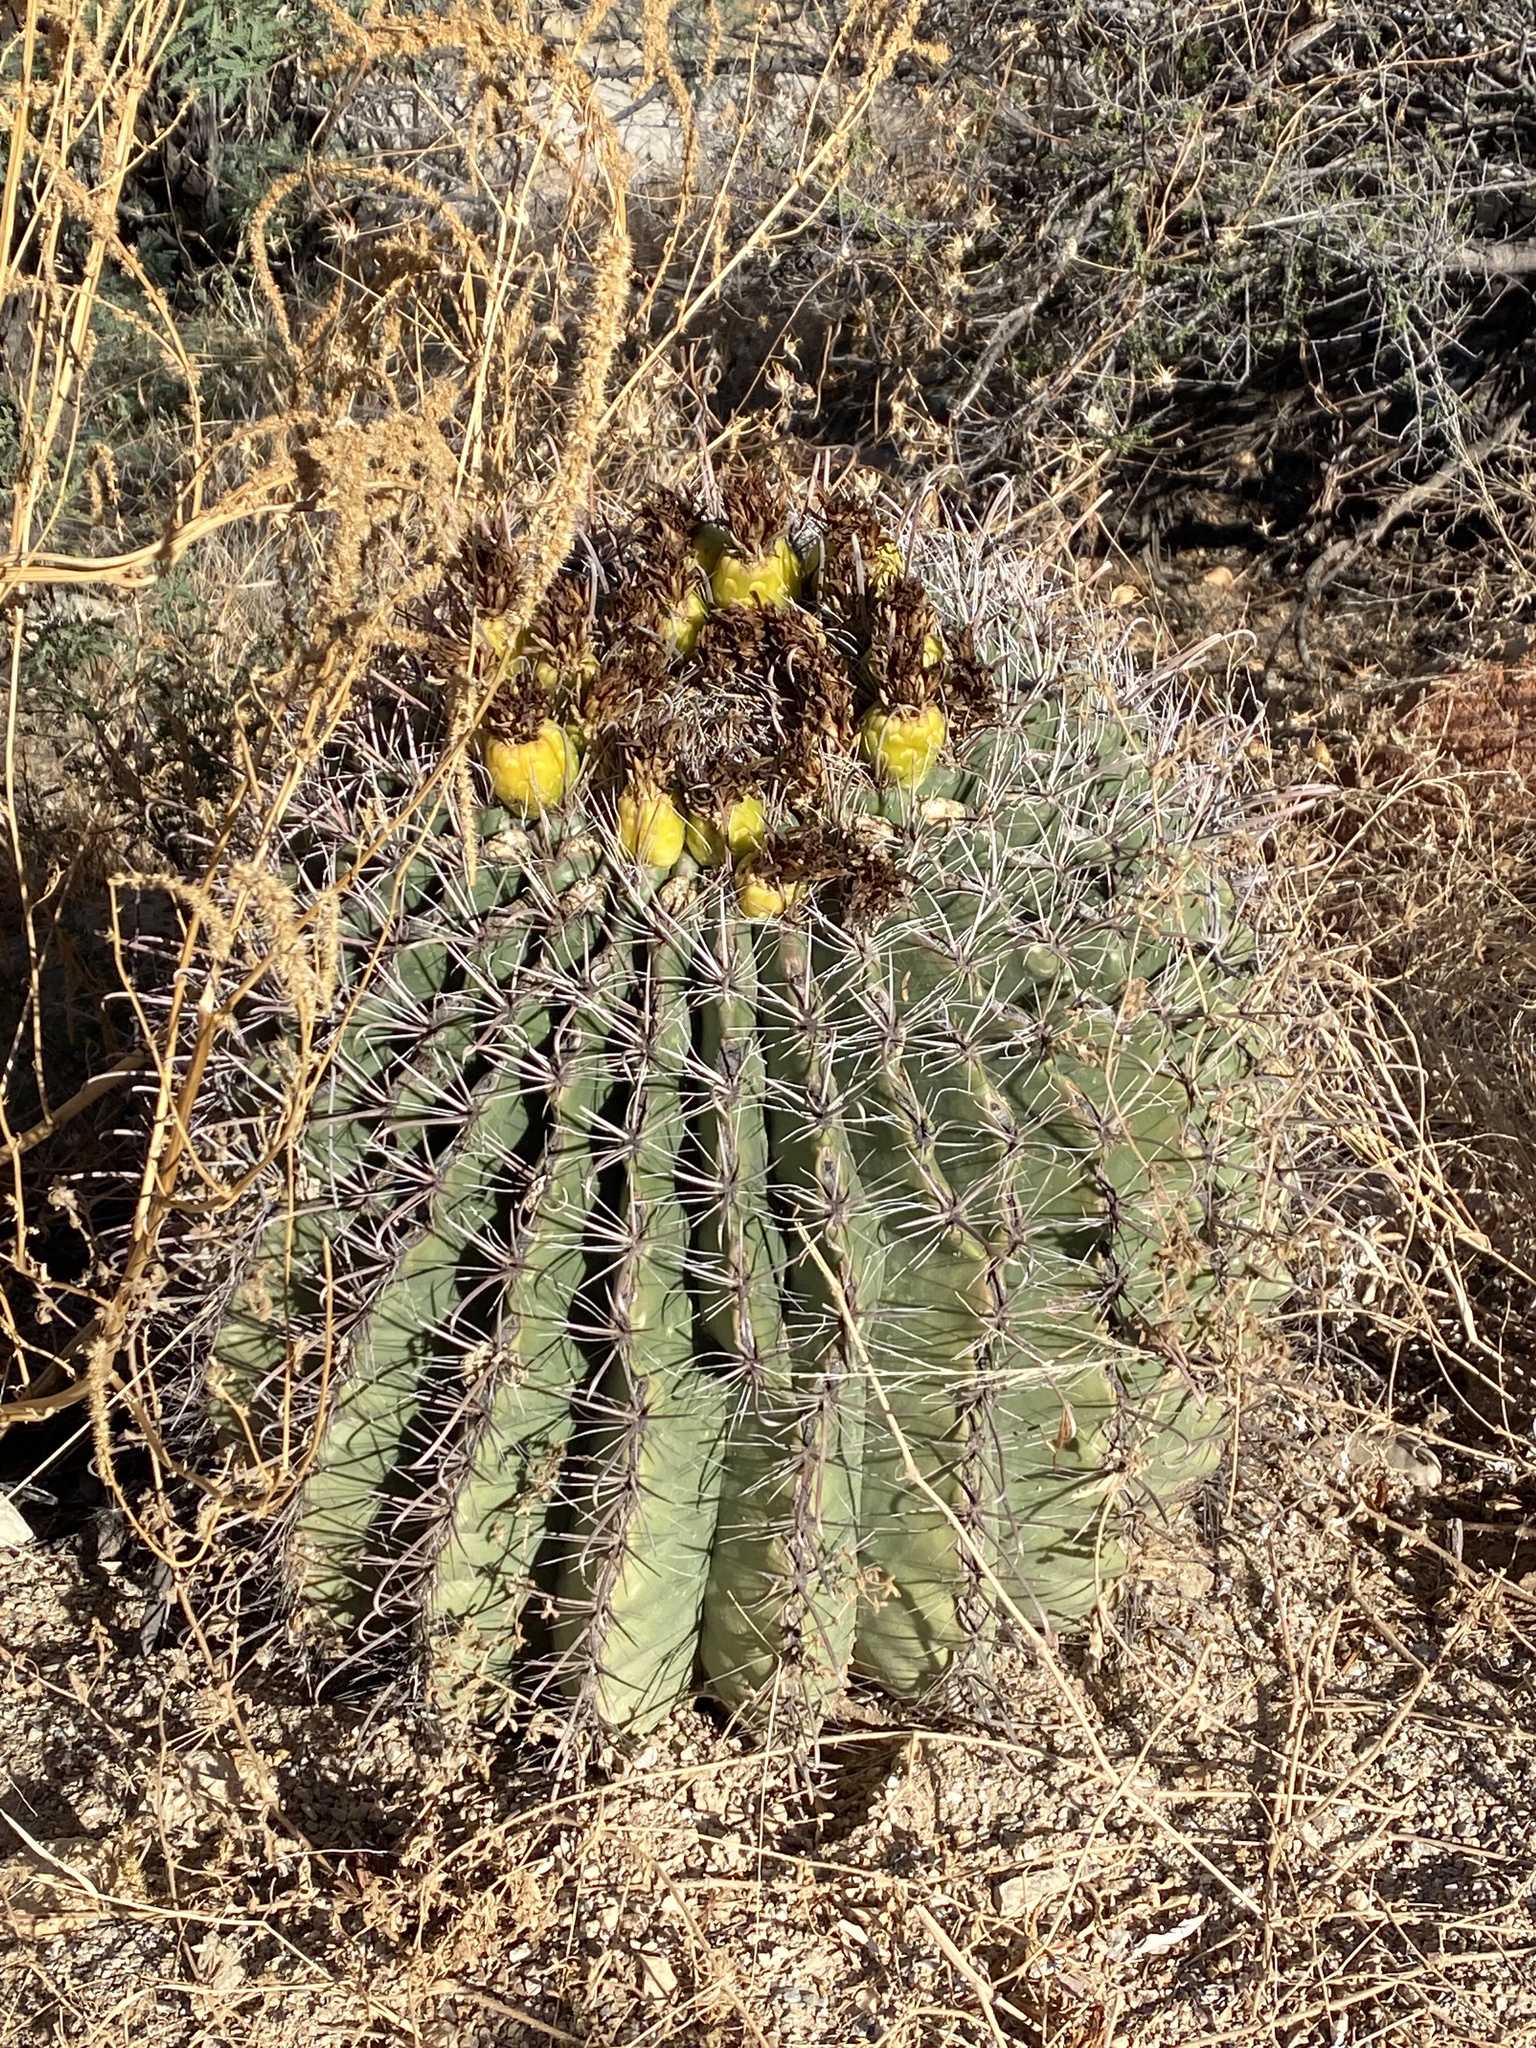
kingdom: Plantae
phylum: Tracheophyta
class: Magnoliopsida
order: Caryophyllales
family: Cactaceae
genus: Ferocactus
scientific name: Ferocactus wislizeni
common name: Candy barrel cactus
